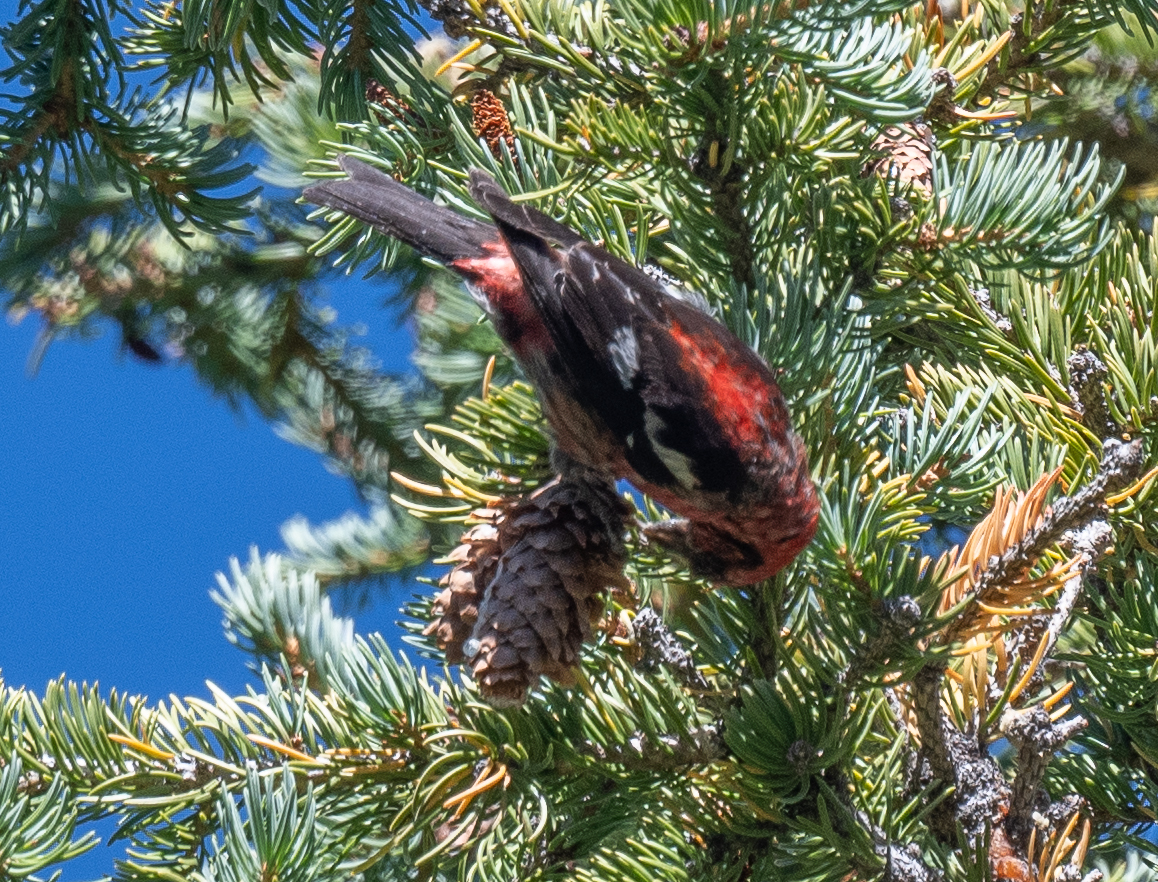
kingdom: Animalia
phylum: Chordata
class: Aves
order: Passeriformes
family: Fringillidae
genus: Loxia
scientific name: Loxia leucoptera
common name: Two-barred crossbill
